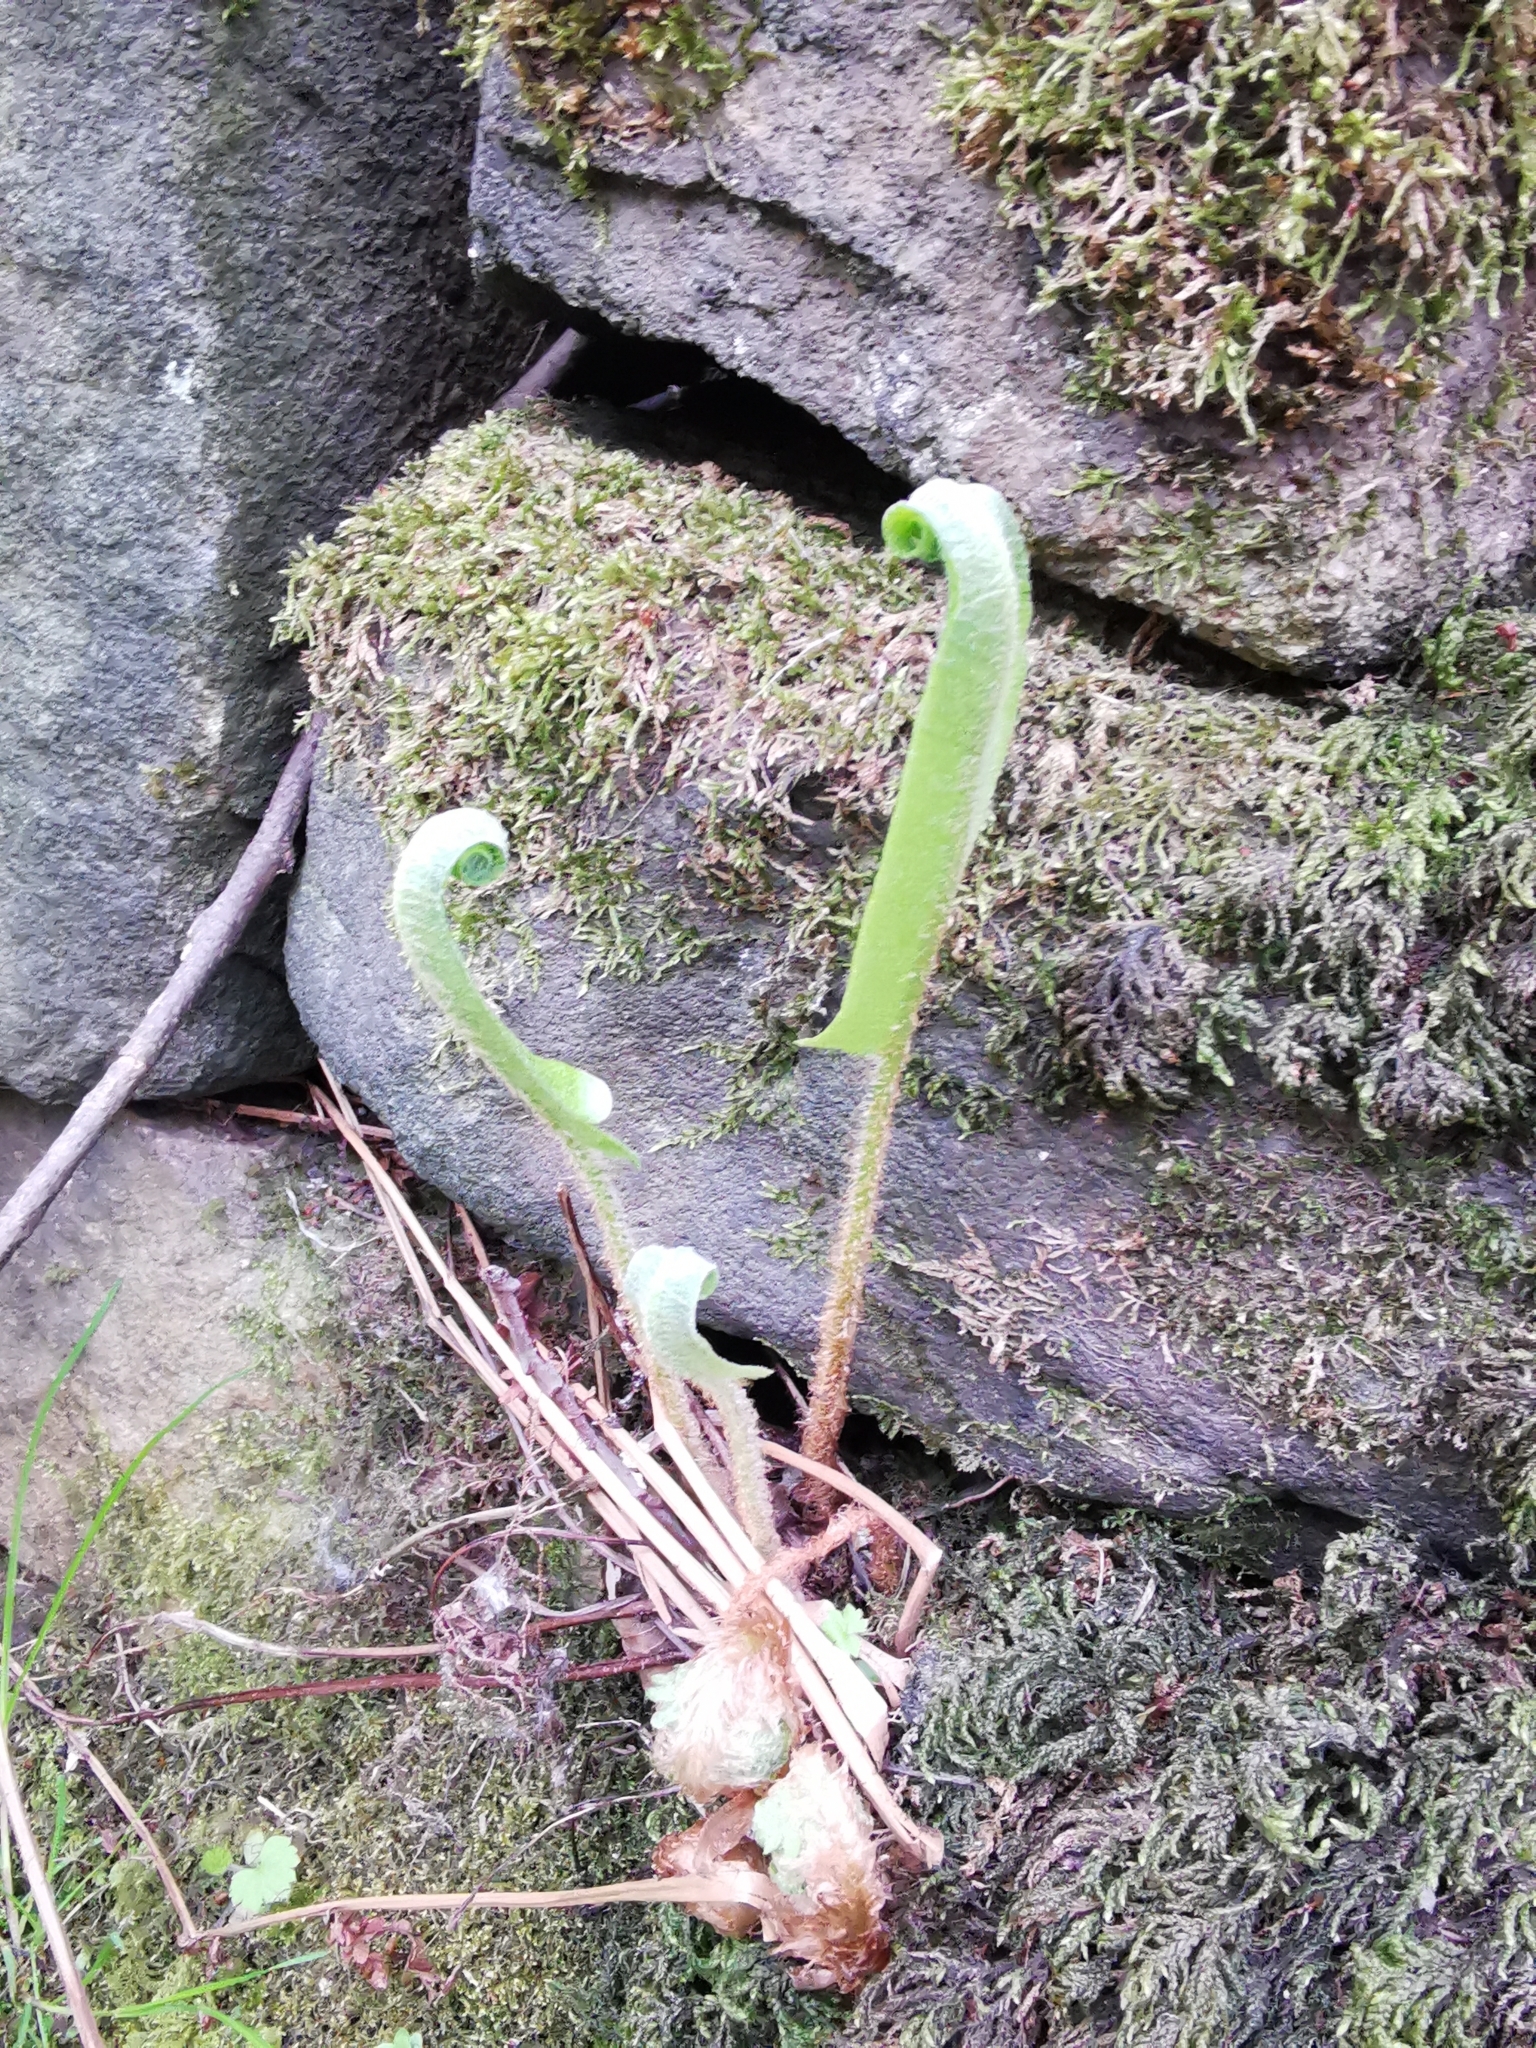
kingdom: Plantae
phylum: Tracheophyta
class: Polypodiopsida
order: Polypodiales
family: Aspleniaceae
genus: Asplenium
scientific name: Asplenium scolopendrium
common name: Hart's-tongue fern
